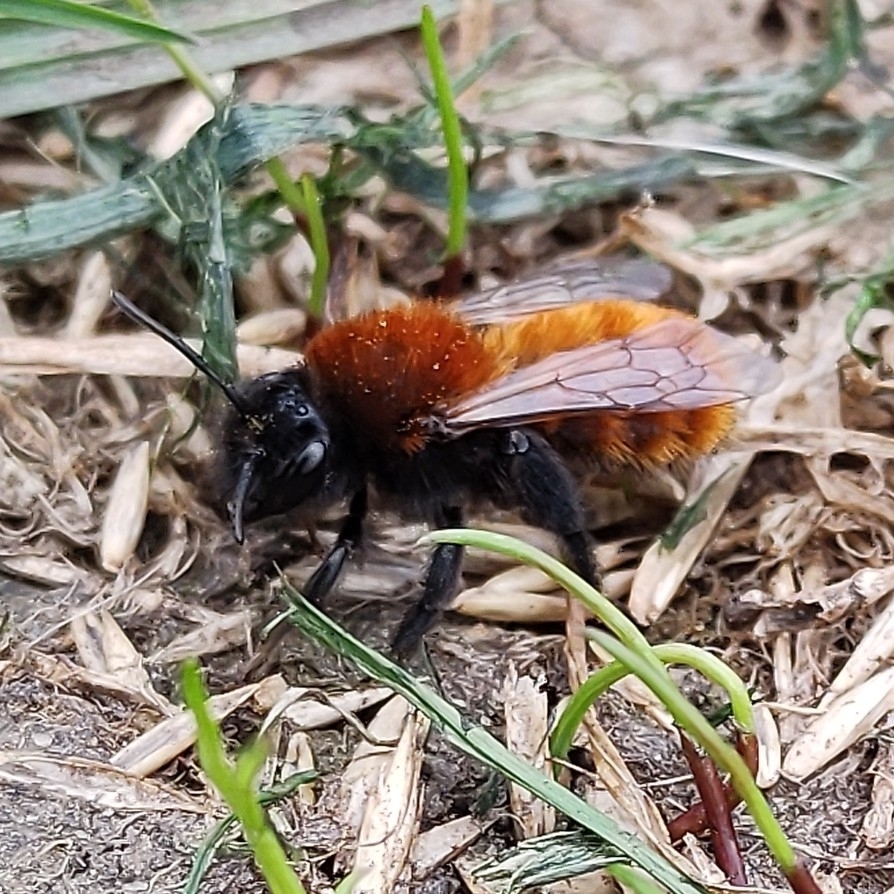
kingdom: Animalia
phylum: Arthropoda
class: Insecta
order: Hymenoptera
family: Andrenidae
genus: Andrena
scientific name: Andrena fulva
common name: Tawny mining bee
